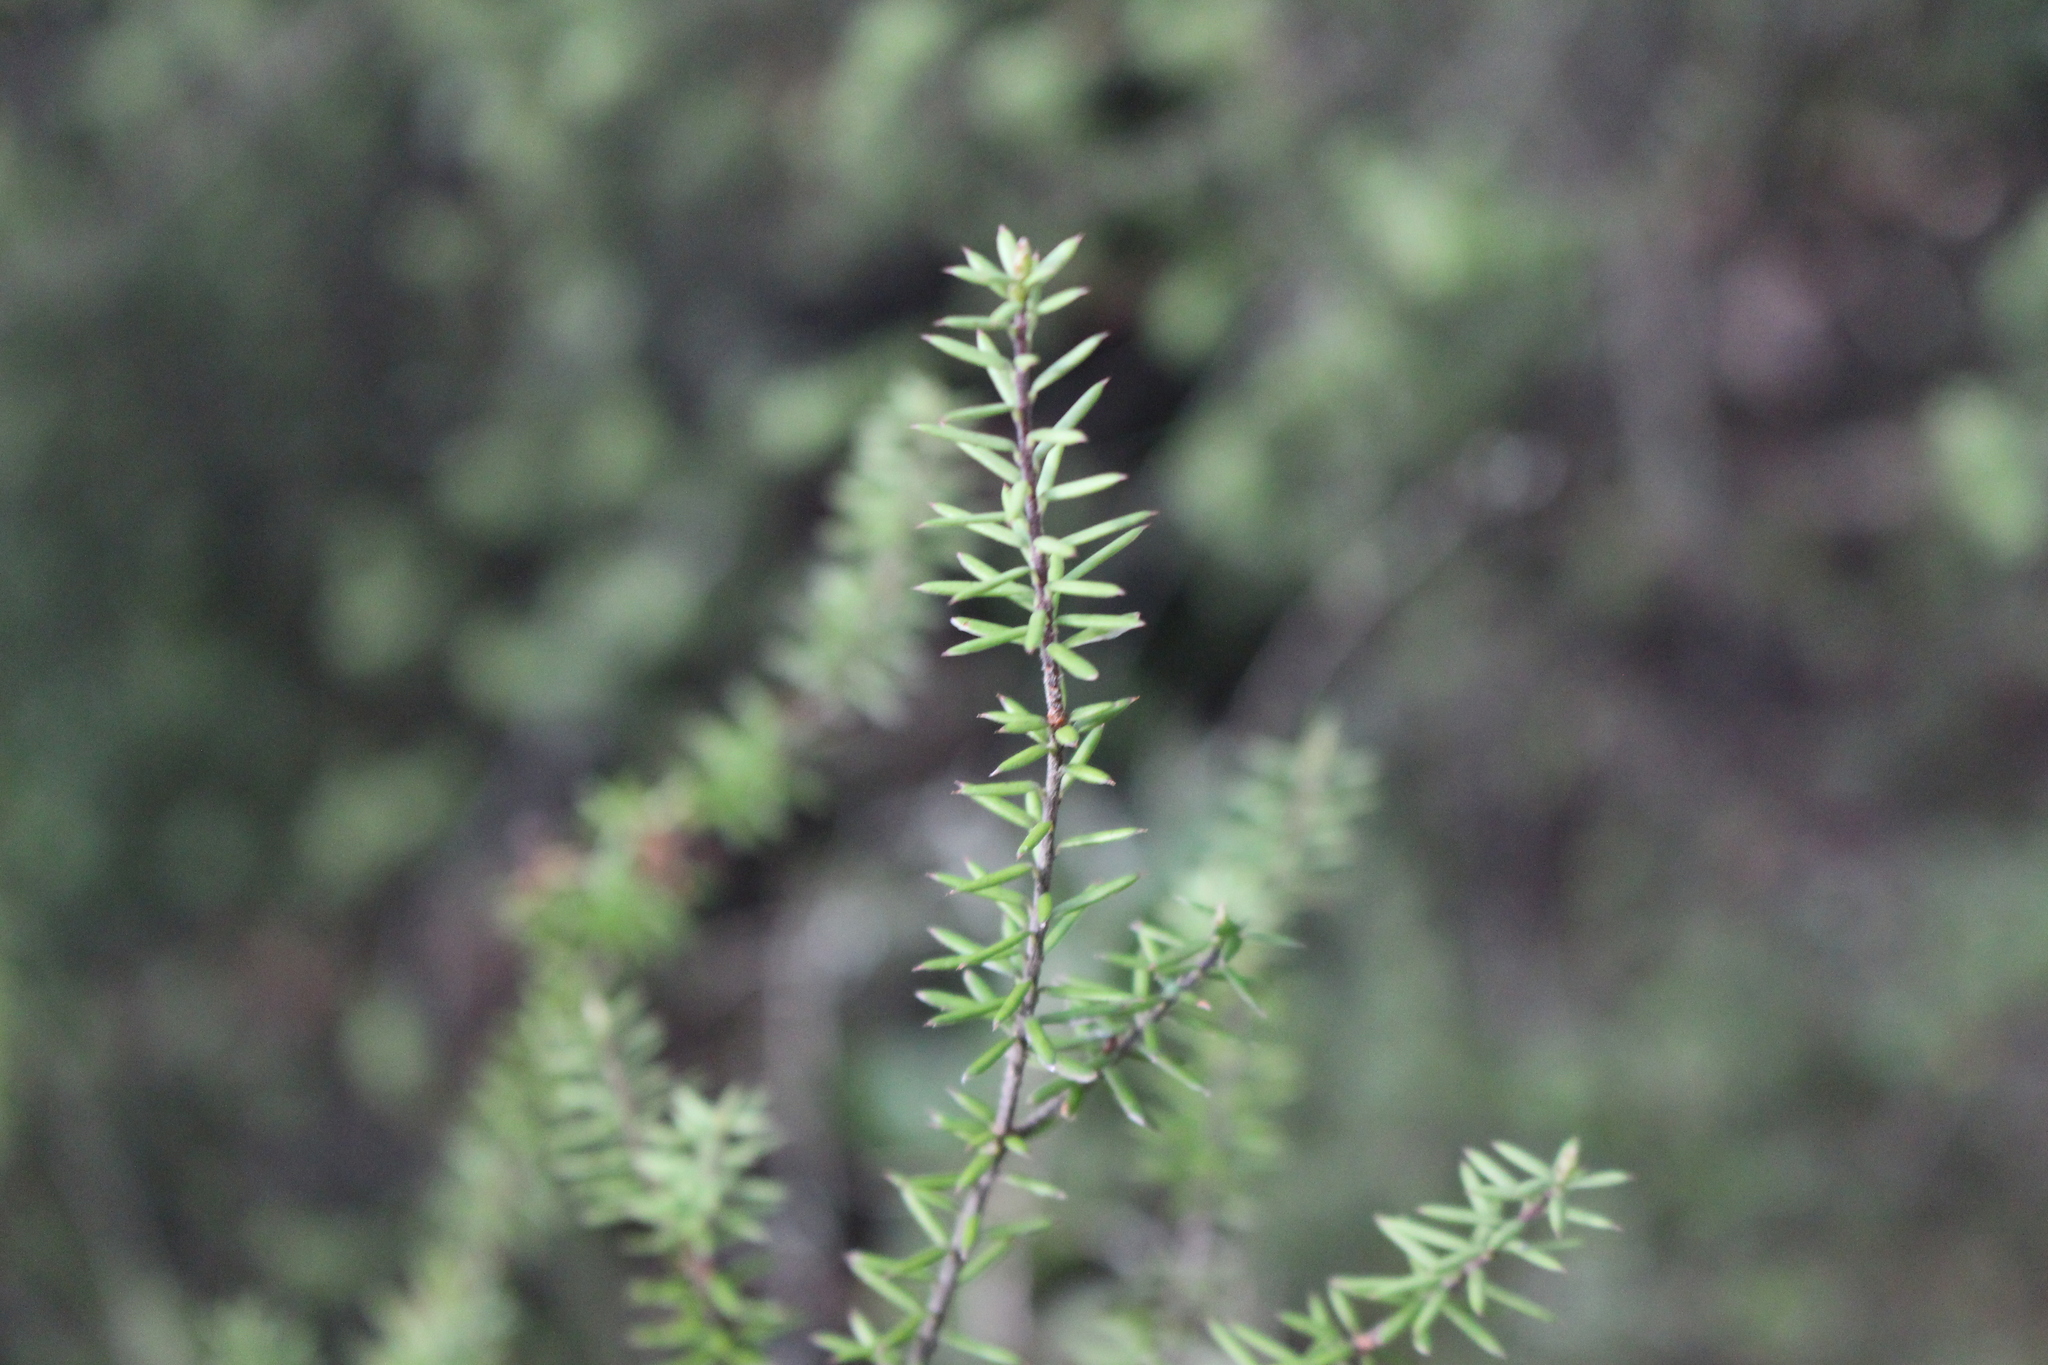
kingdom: Plantae
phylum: Tracheophyta
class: Magnoliopsida
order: Ericales
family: Ericaceae
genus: Leptecophylla
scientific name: Leptecophylla juniperina
